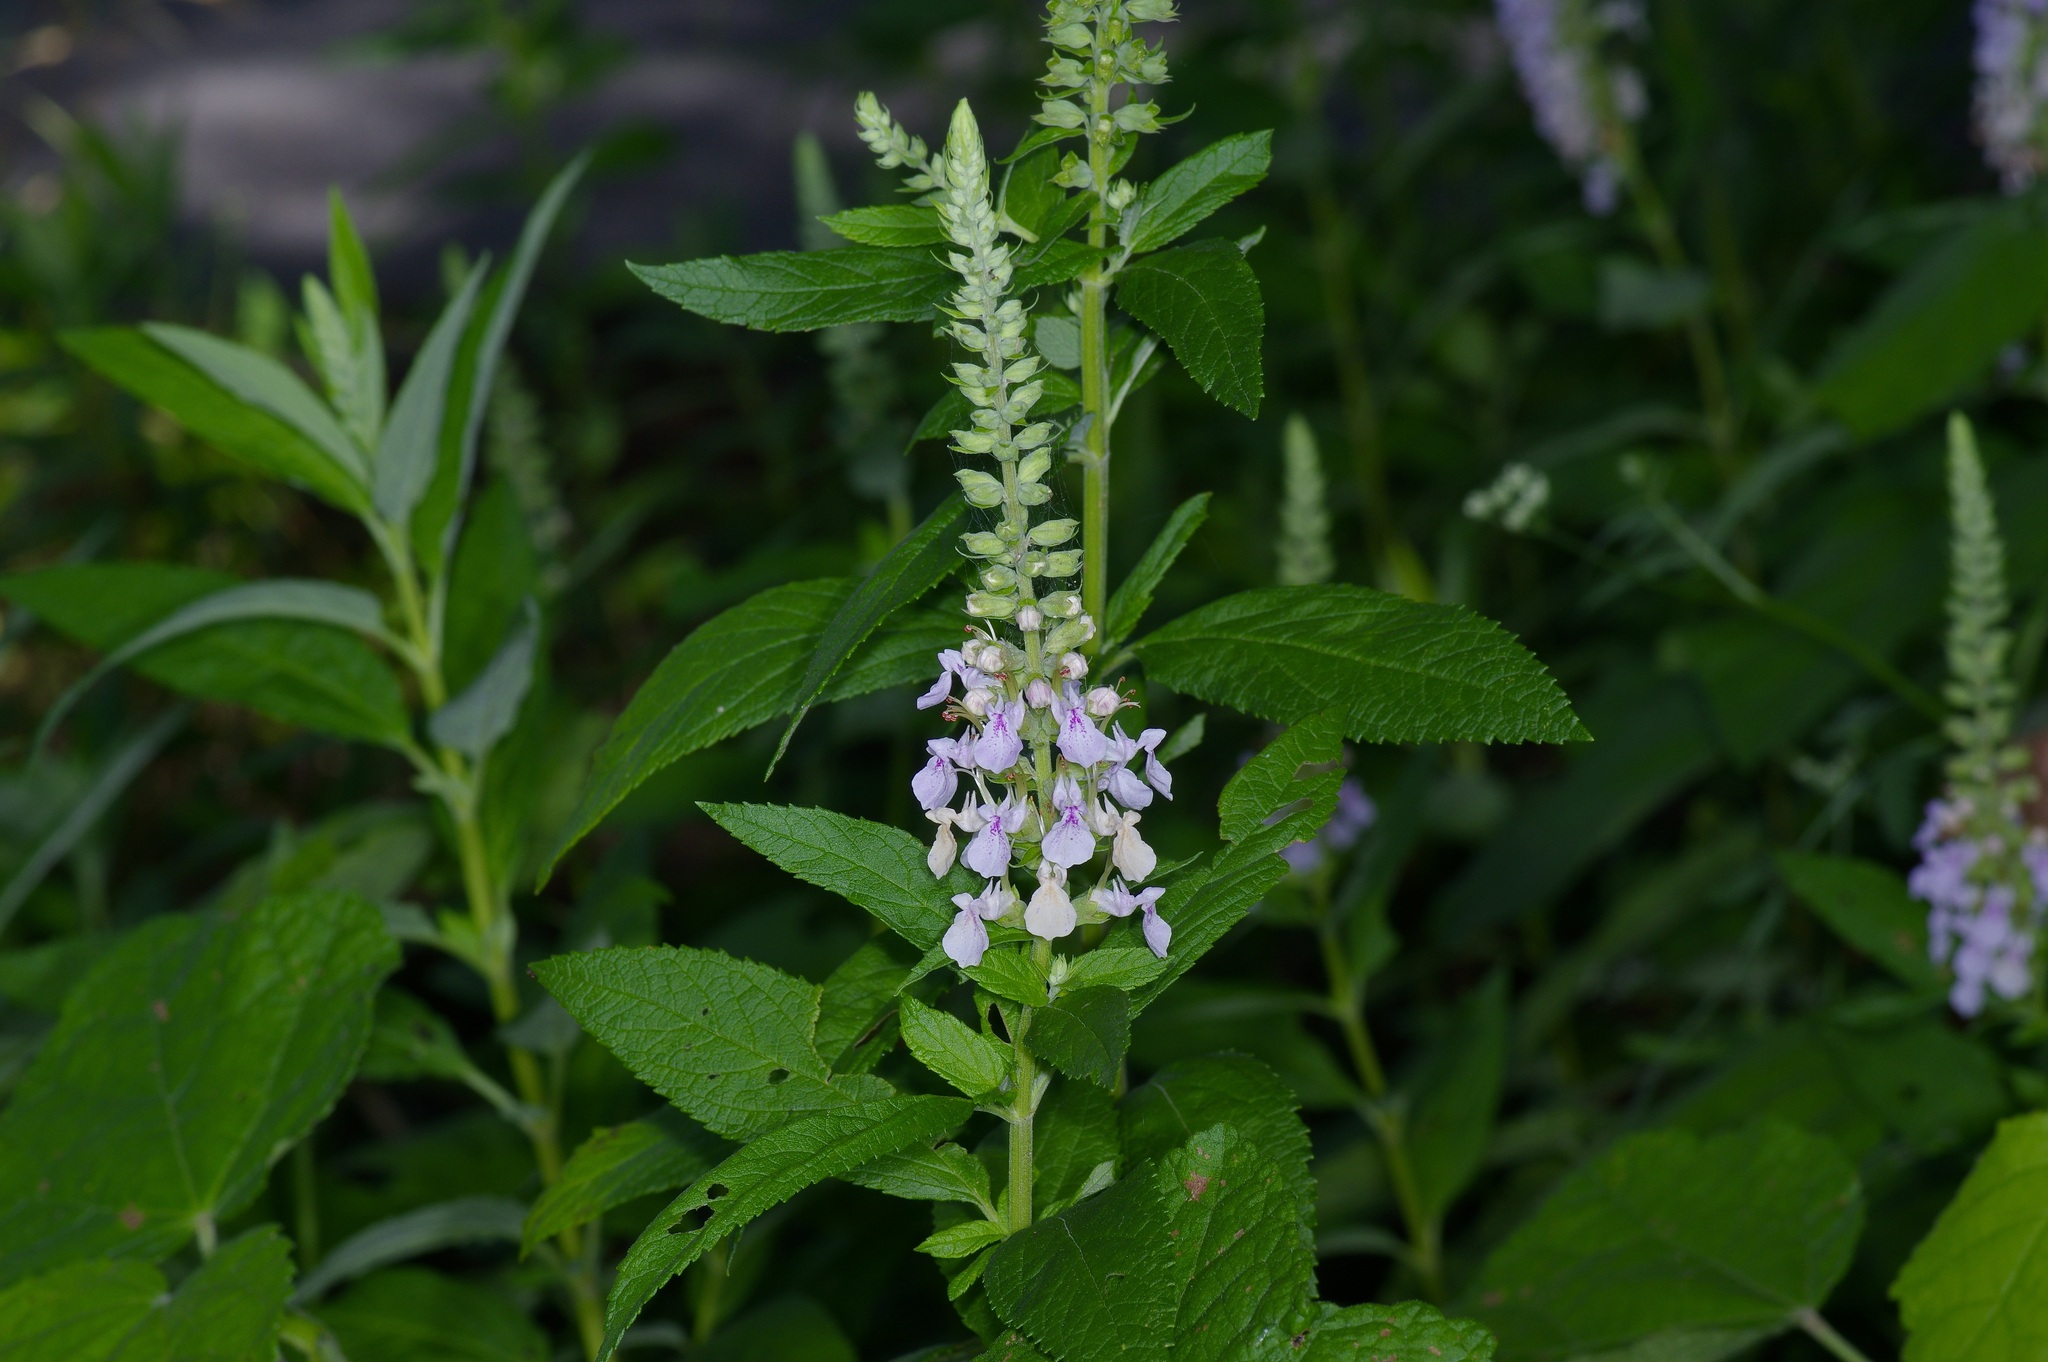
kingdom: Plantae
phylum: Tracheophyta
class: Magnoliopsida
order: Lamiales
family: Lamiaceae
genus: Teucrium
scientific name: Teucrium canadense
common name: American germander
